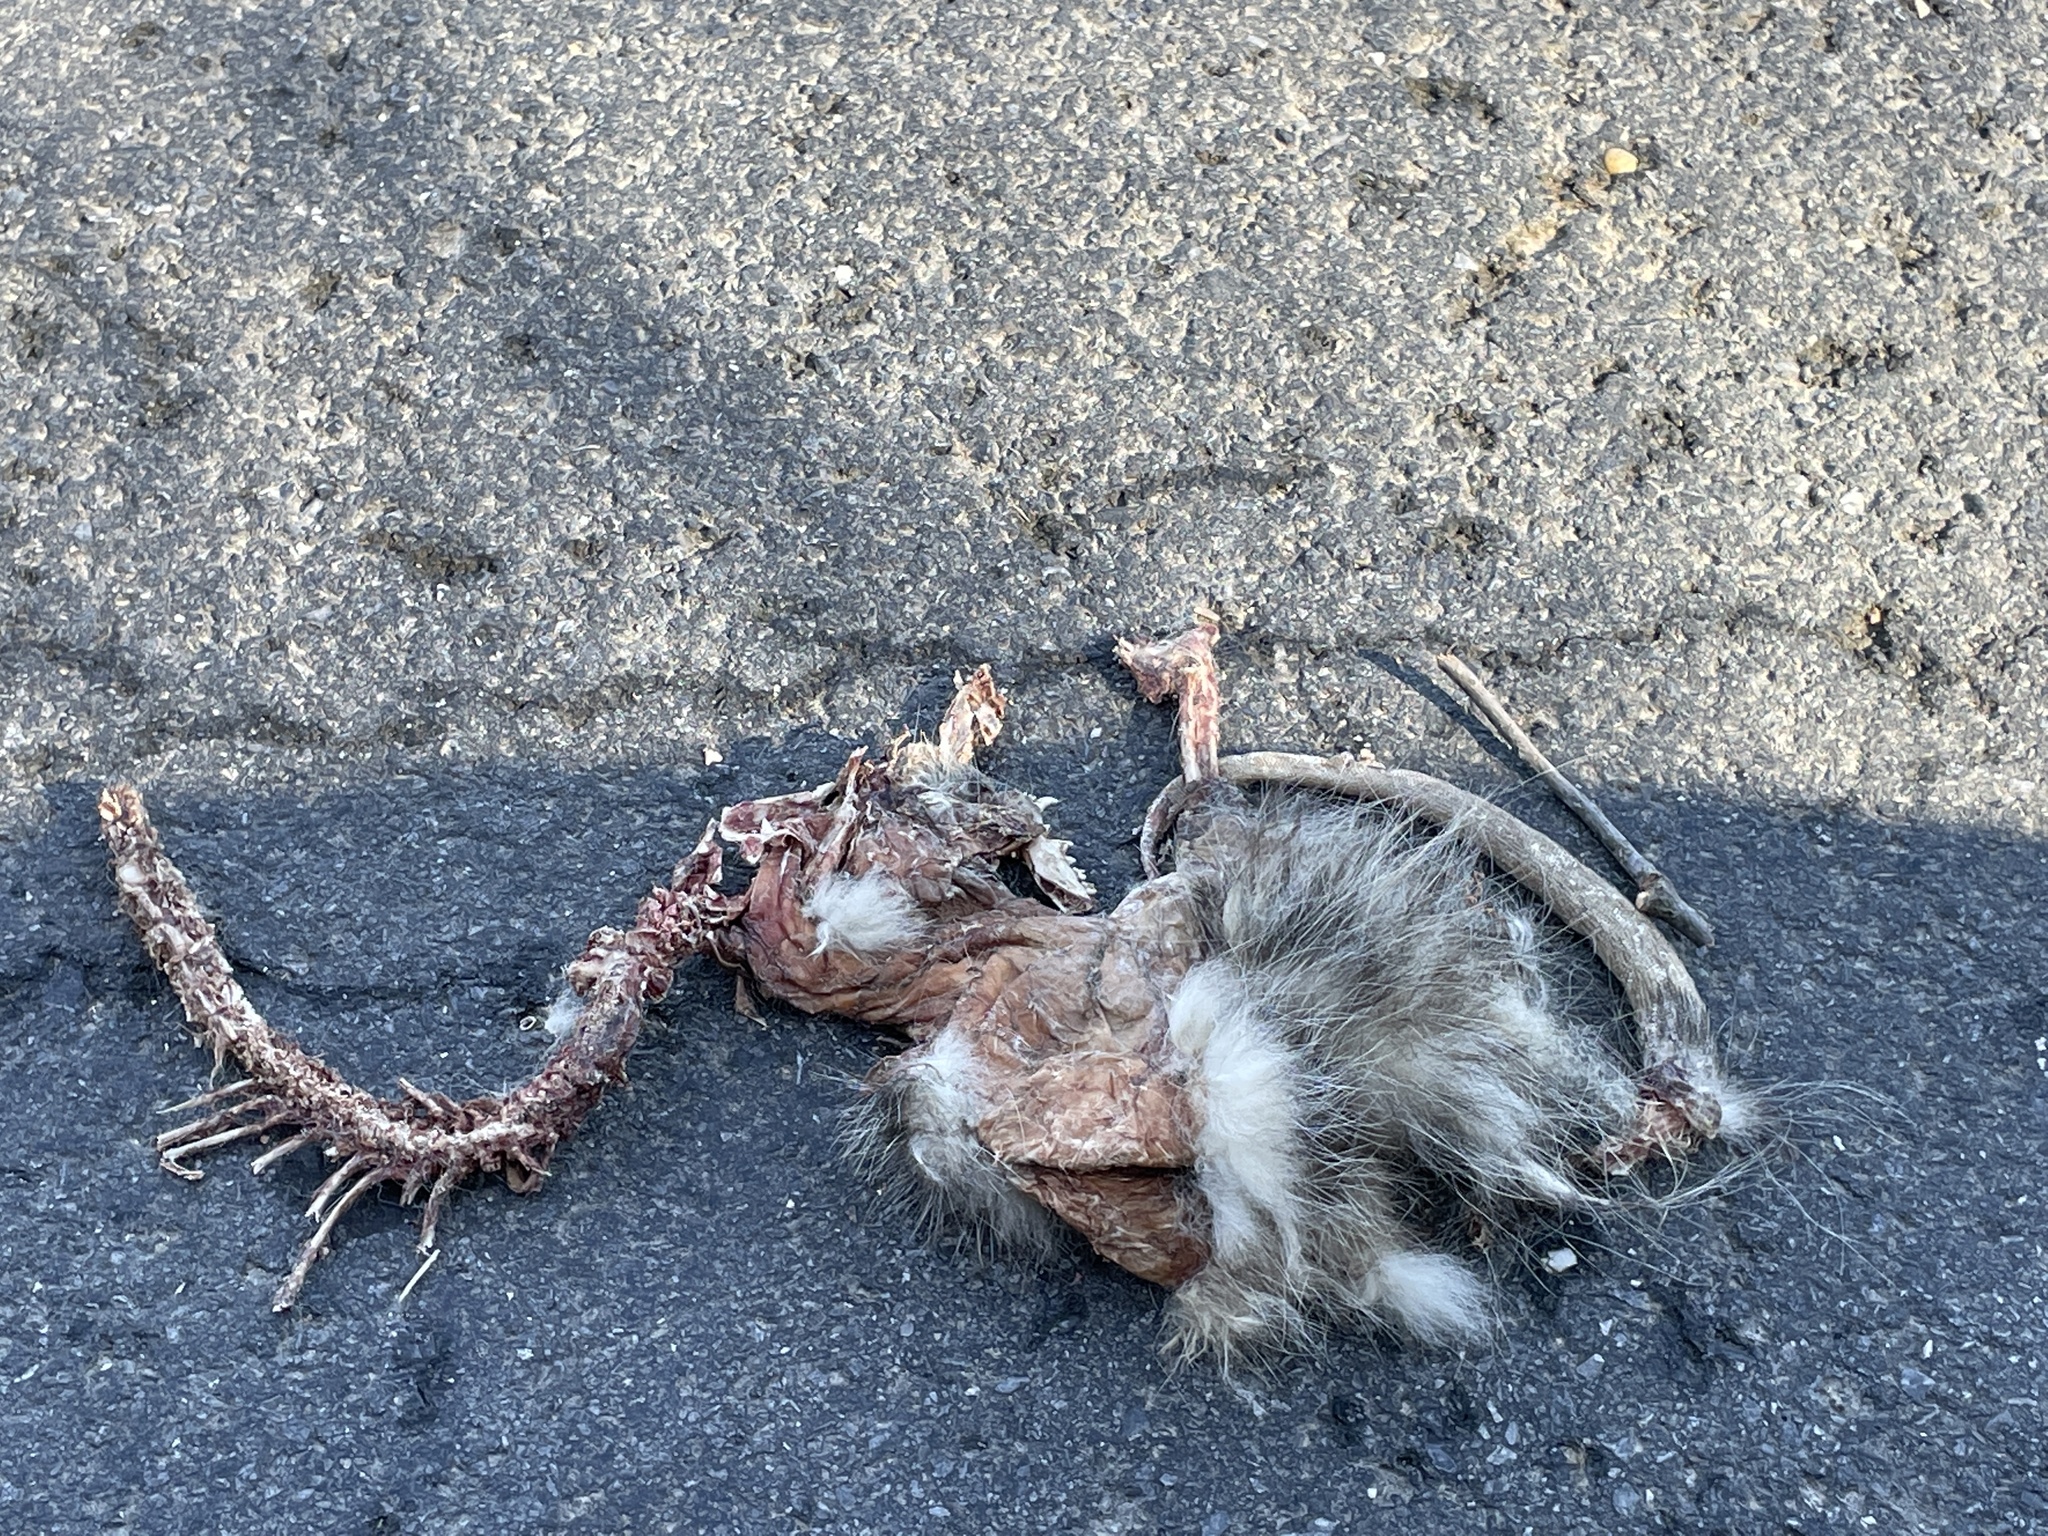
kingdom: Animalia
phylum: Chordata
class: Mammalia
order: Didelphimorphia
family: Didelphidae
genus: Didelphis
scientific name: Didelphis virginiana
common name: Virginia opossum
